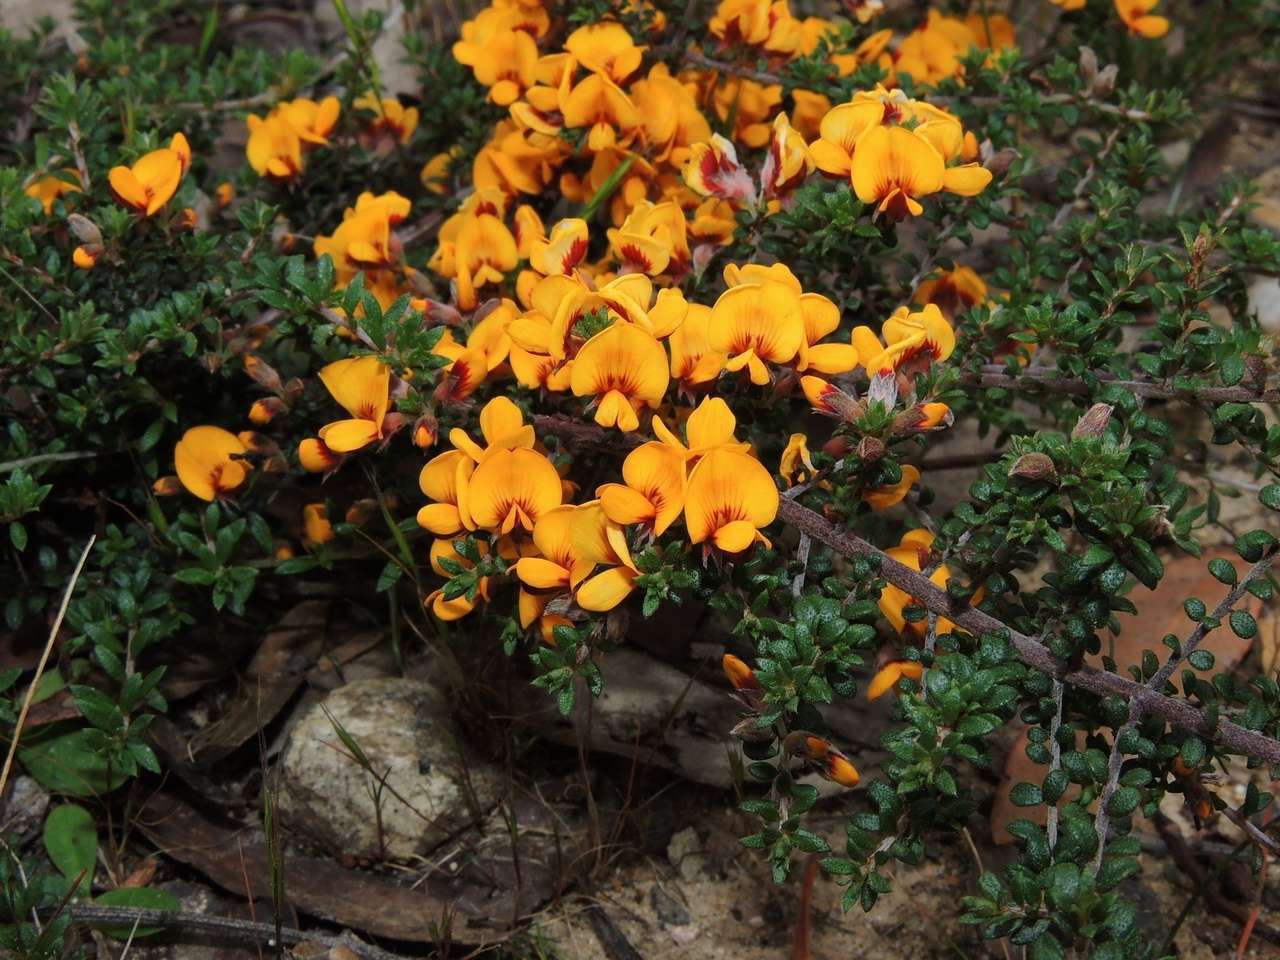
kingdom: Plantae
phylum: Tracheophyta
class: Magnoliopsida
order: Fabales
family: Fabaceae
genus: Pultenaea
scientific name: Pultenaea gunnii
